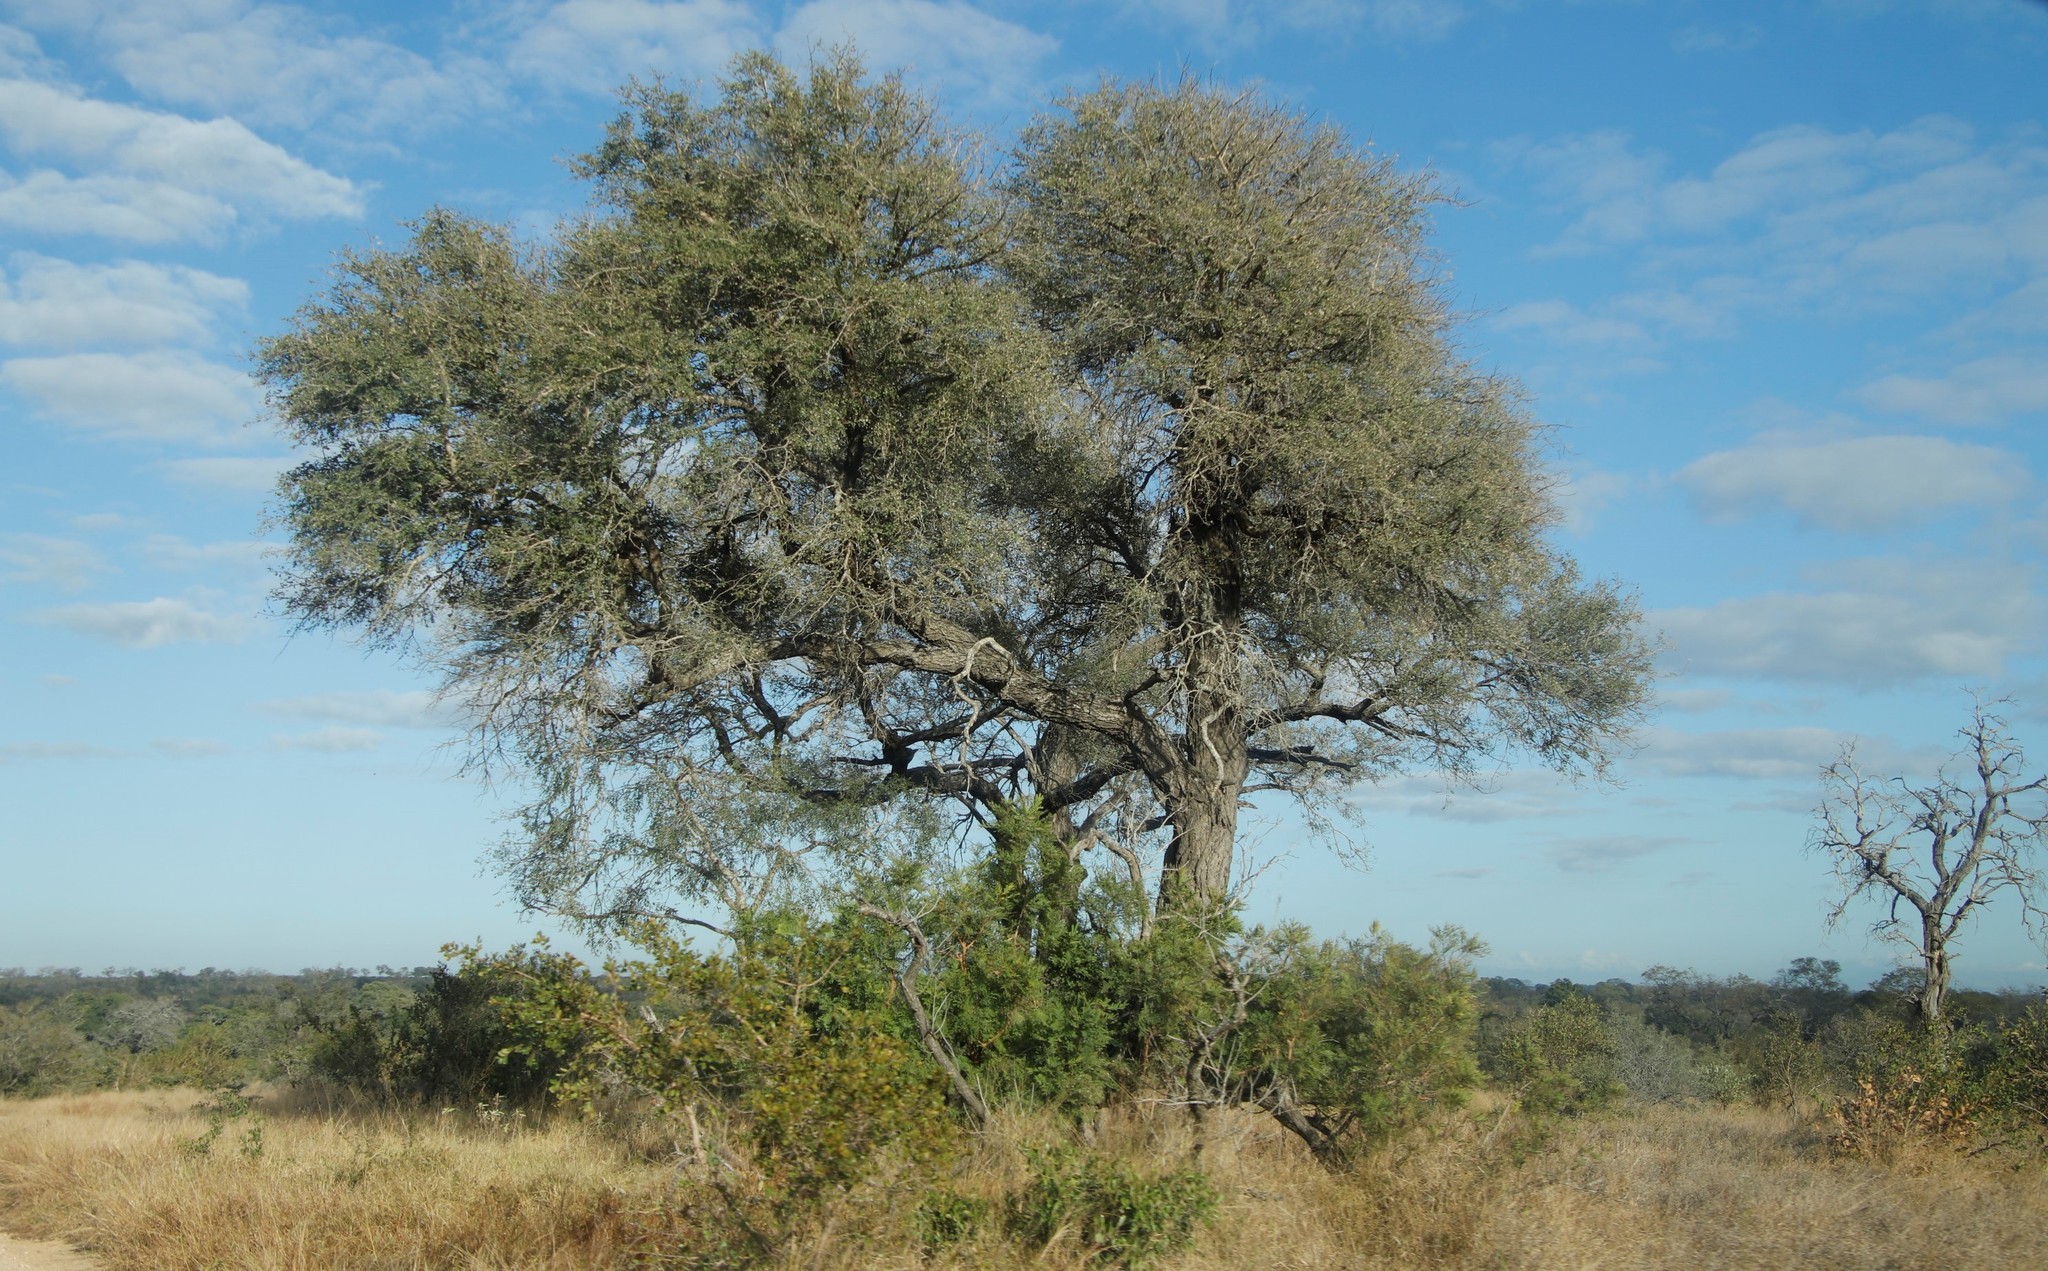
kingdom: Plantae
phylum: Tracheophyta
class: Magnoliopsida
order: Fabales
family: Fabaceae
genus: Senegalia
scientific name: Senegalia nigrescens
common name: Knobthorn
